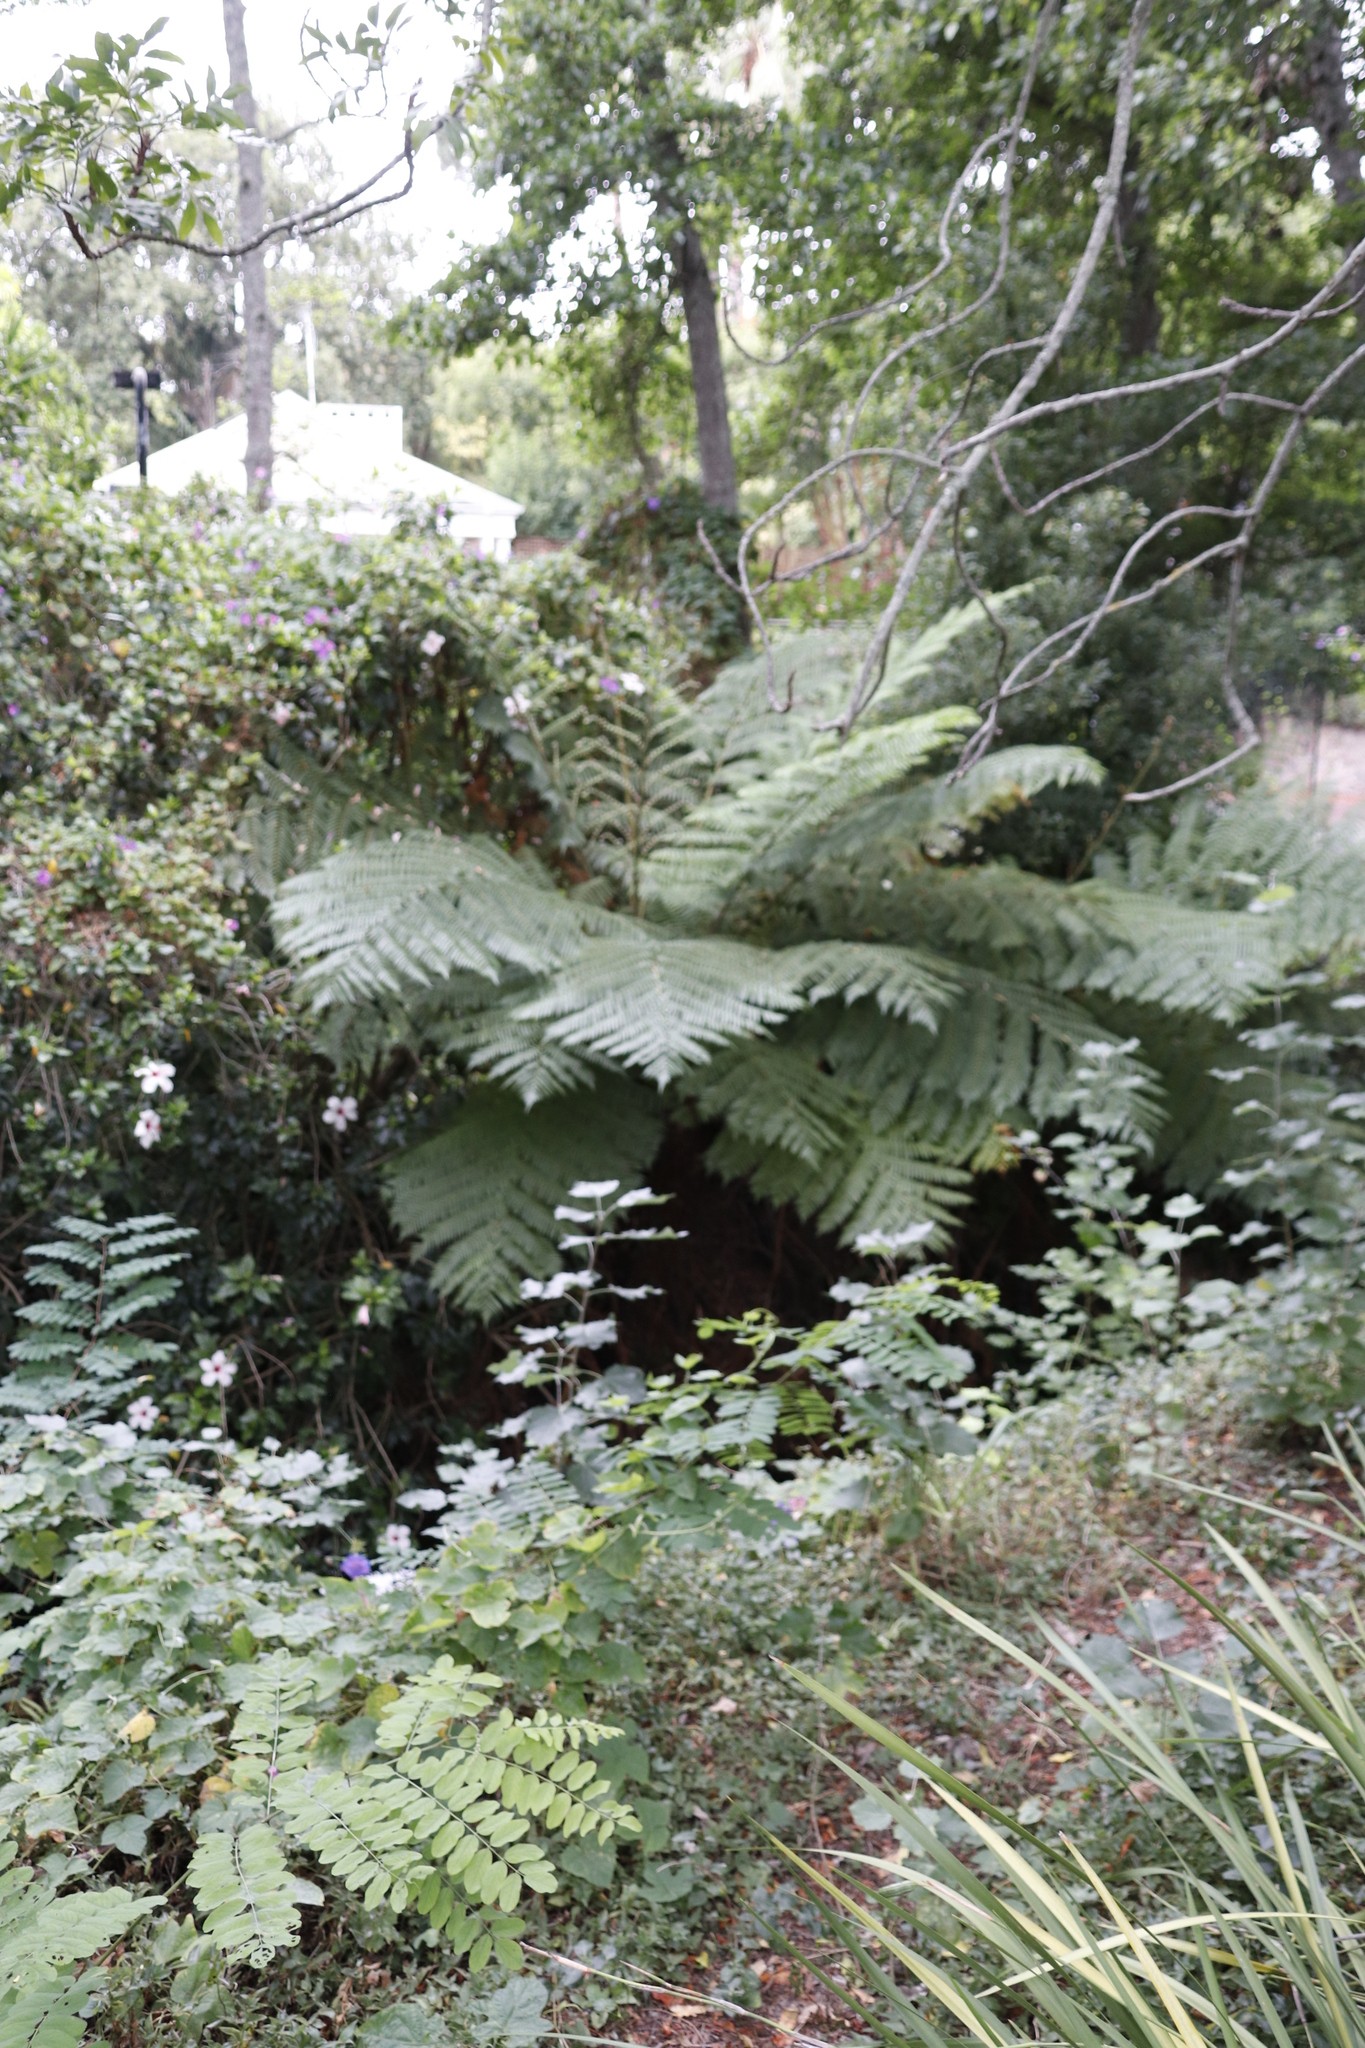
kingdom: Plantae
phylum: Tracheophyta
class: Polypodiopsida
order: Cyatheales
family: Cyatheaceae
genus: Sphaeropteris
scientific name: Sphaeropteris cooperi
